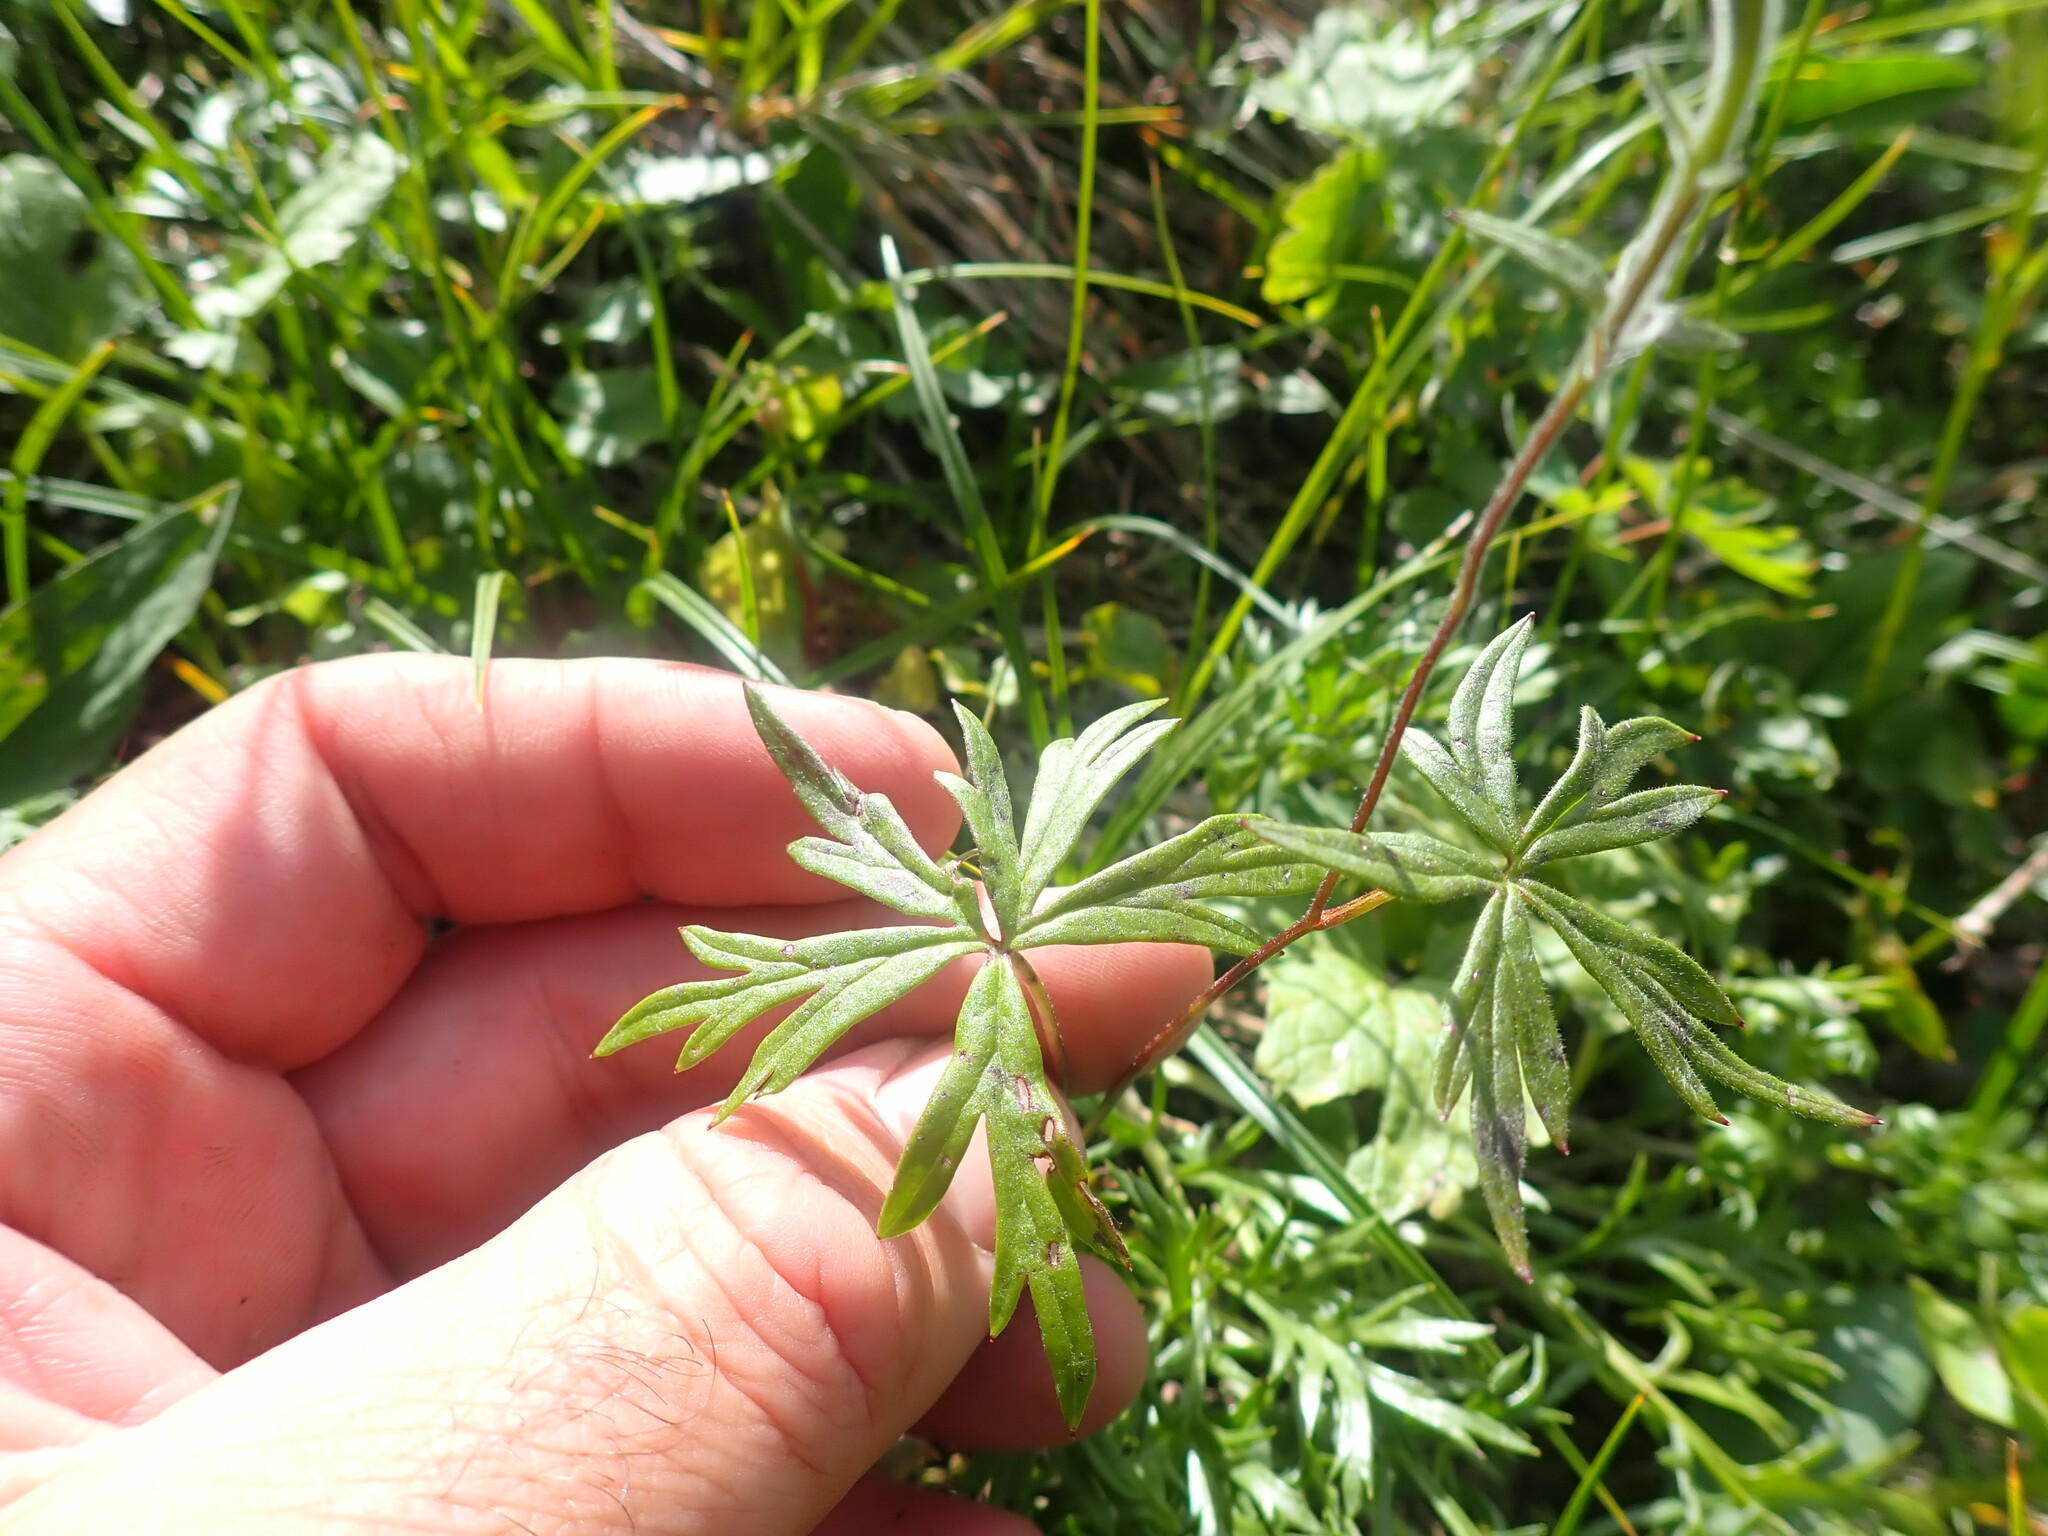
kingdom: Plantae
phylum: Tracheophyta
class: Magnoliopsida
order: Ranunculales
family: Ranunculaceae
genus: Aconitum
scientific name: Aconitum delphiniifolium
